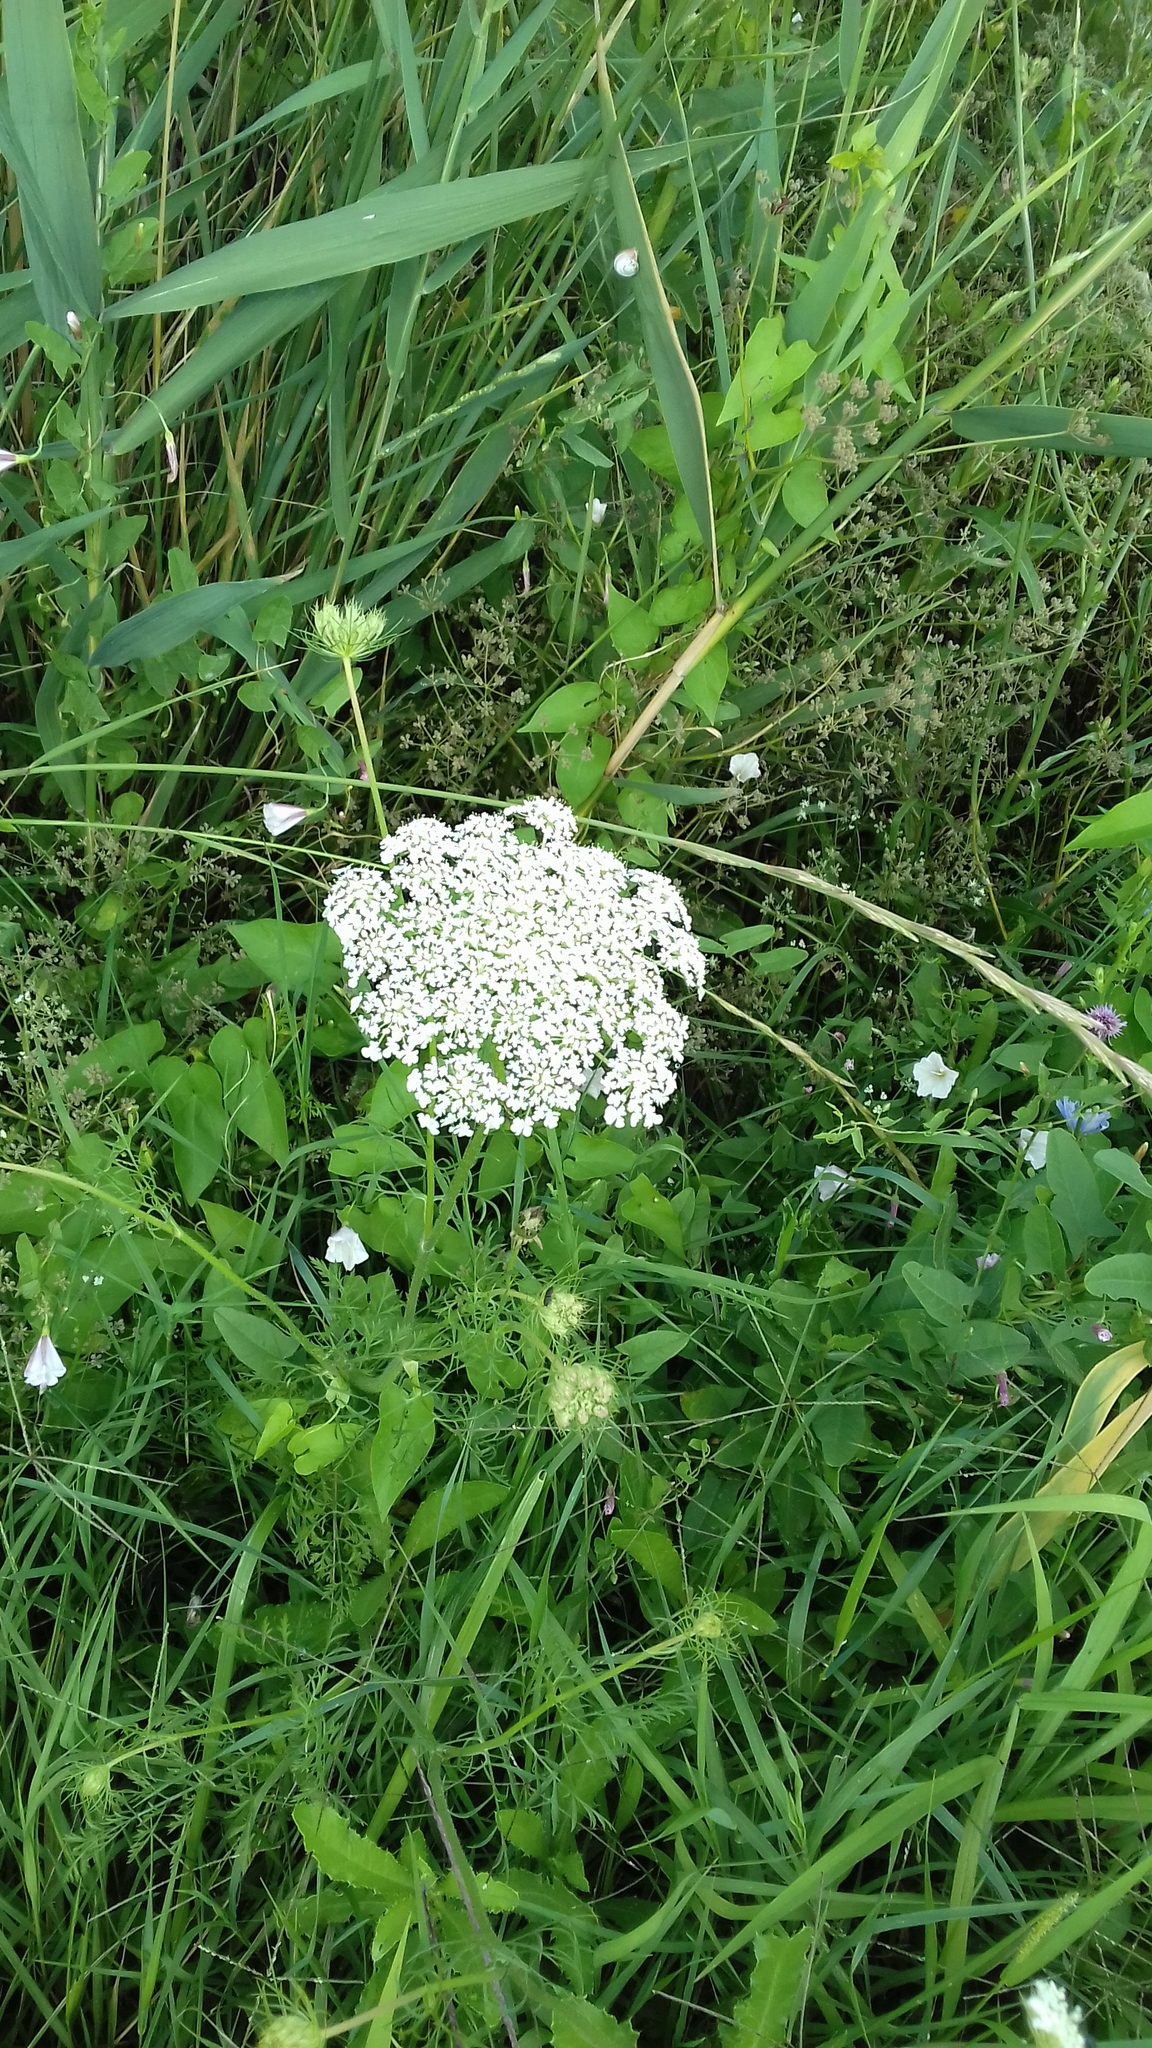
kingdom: Plantae
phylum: Tracheophyta
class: Magnoliopsida
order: Apiales
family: Apiaceae
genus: Daucus
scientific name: Daucus carota
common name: Wild carrot
